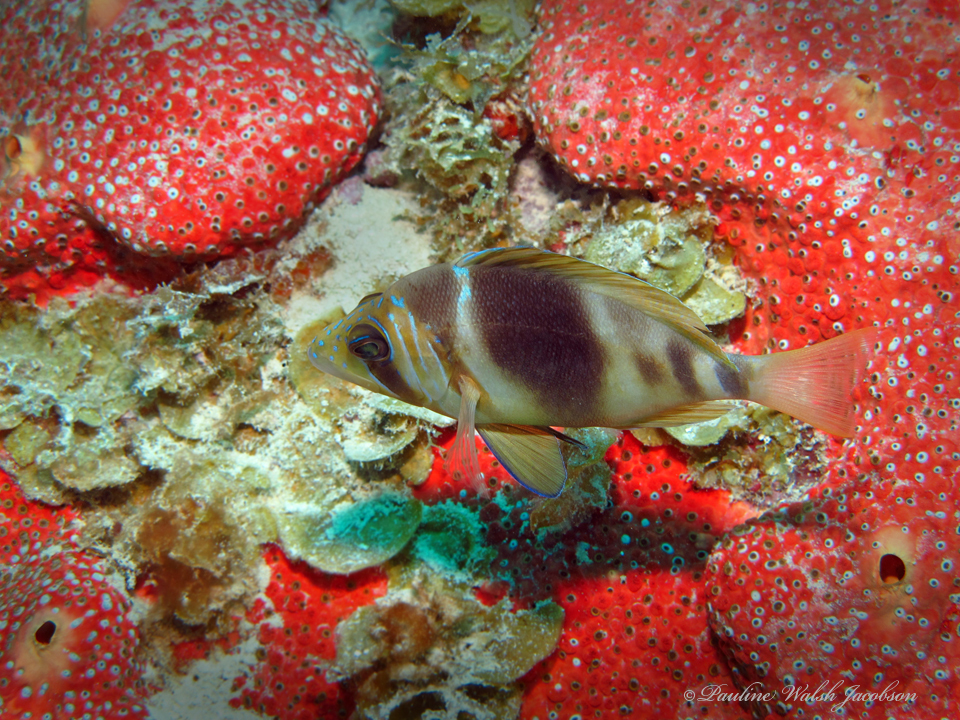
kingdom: Animalia
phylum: Chordata
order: Perciformes
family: Serranidae
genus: Hypoplectrus
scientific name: Hypoplectrus puella
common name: Barred hamlet
